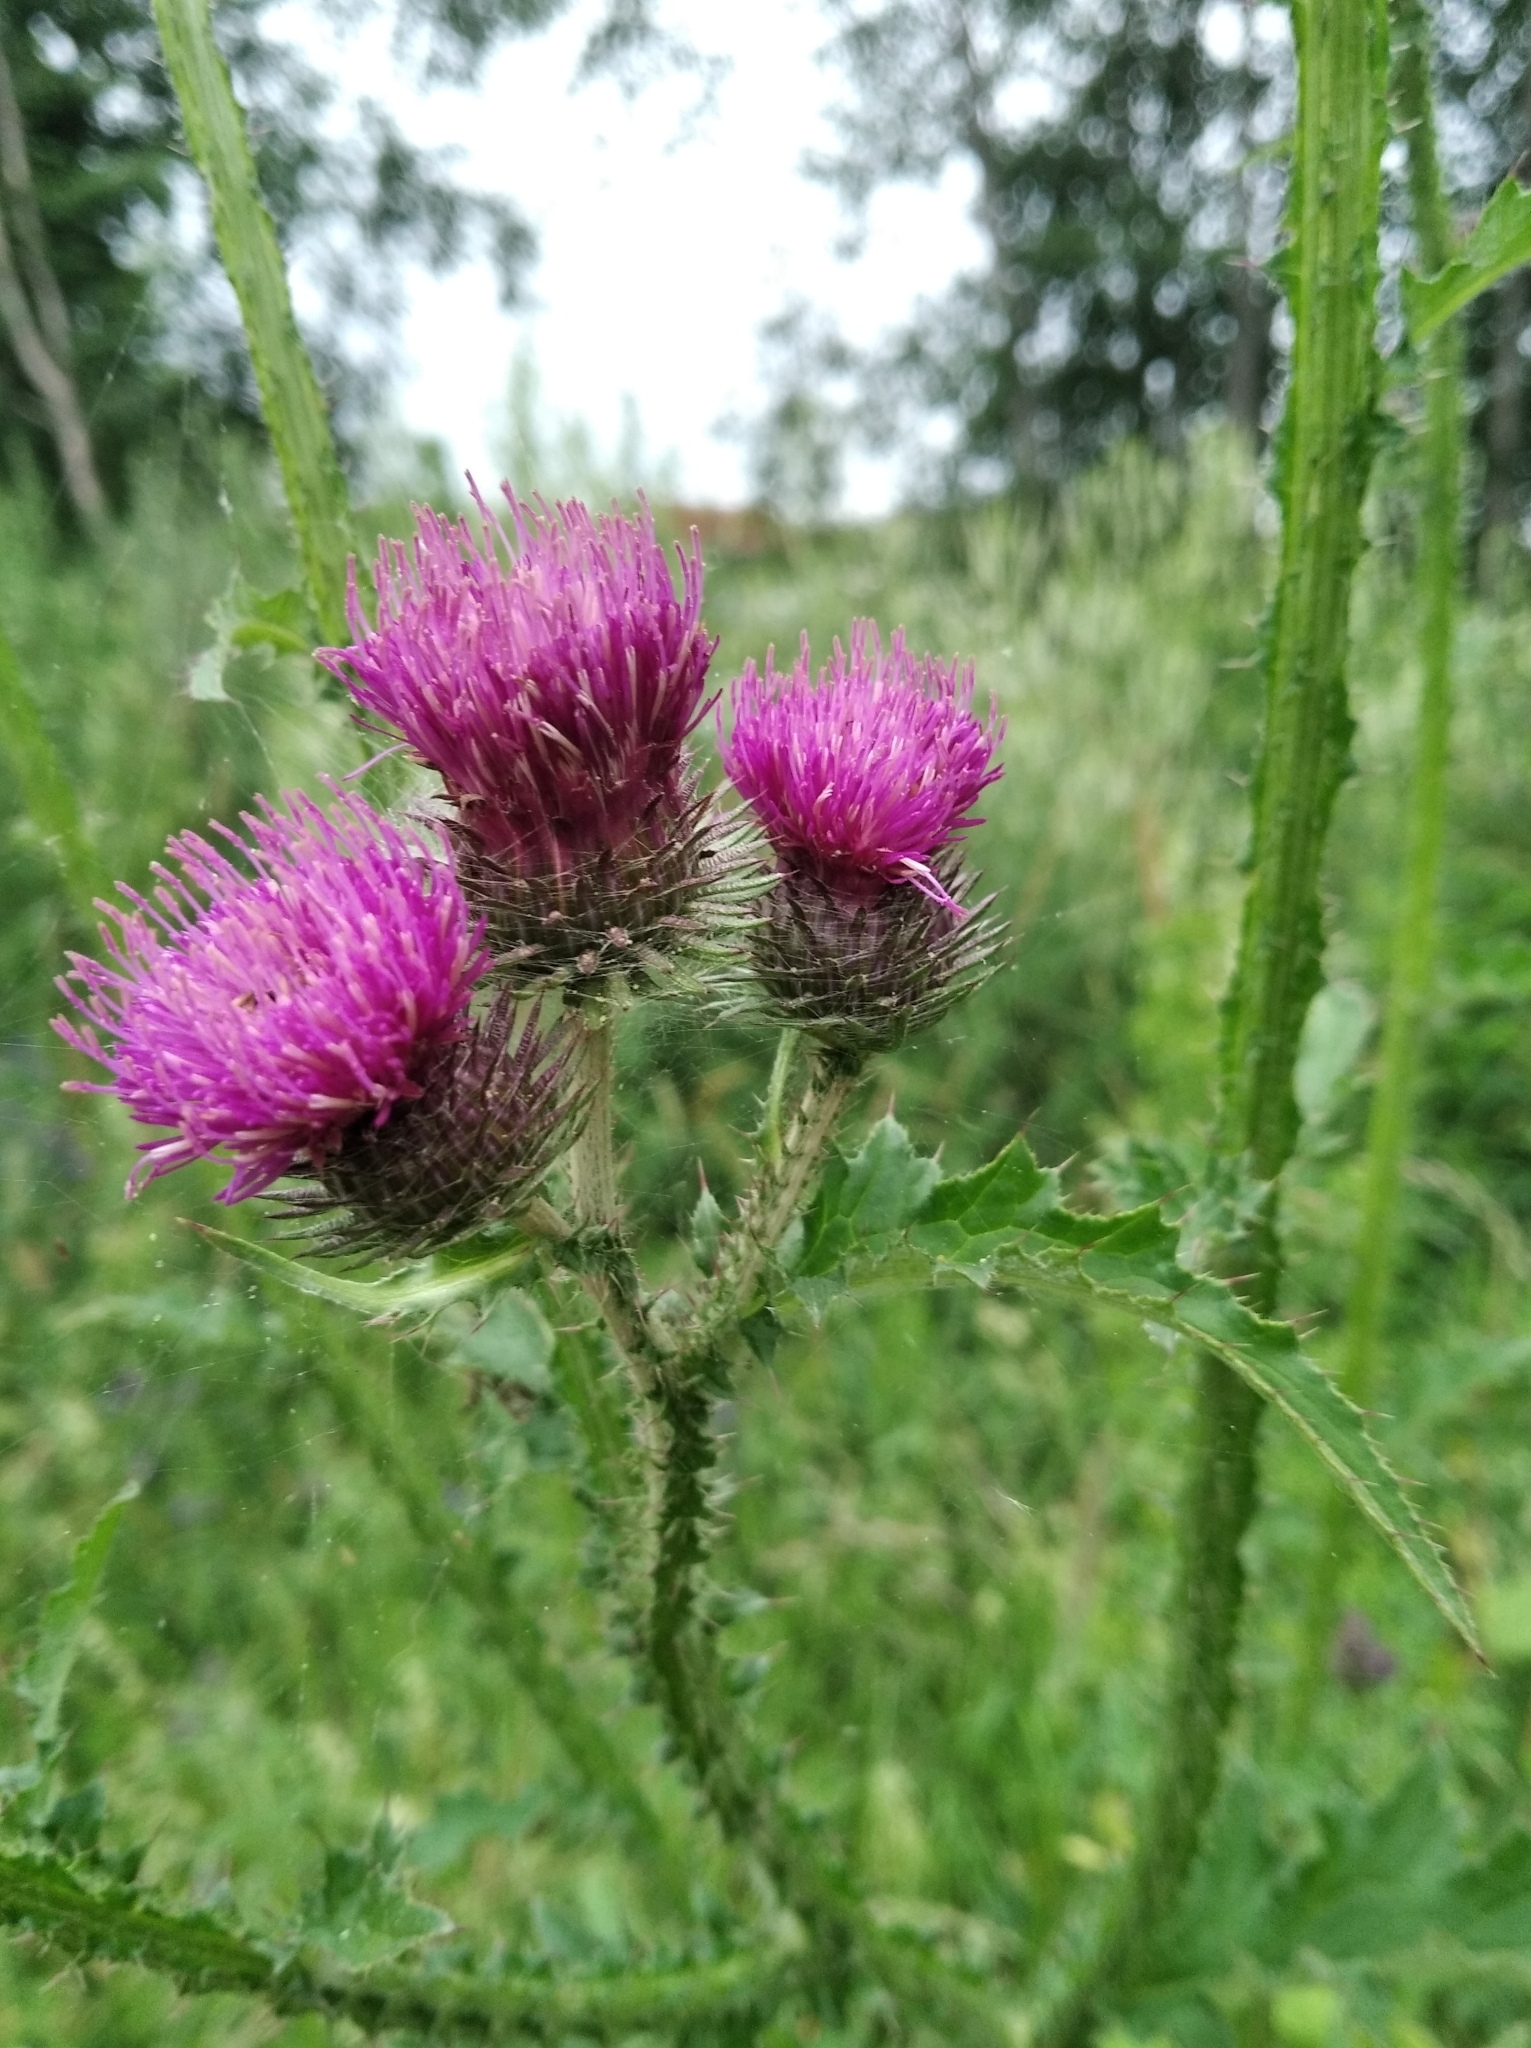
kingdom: Plantae
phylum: Tracheophyta
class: Magnoliopsida
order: Asterales
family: Asteraceae
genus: Carduus
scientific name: Carduus crispus
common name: Welted thistle
